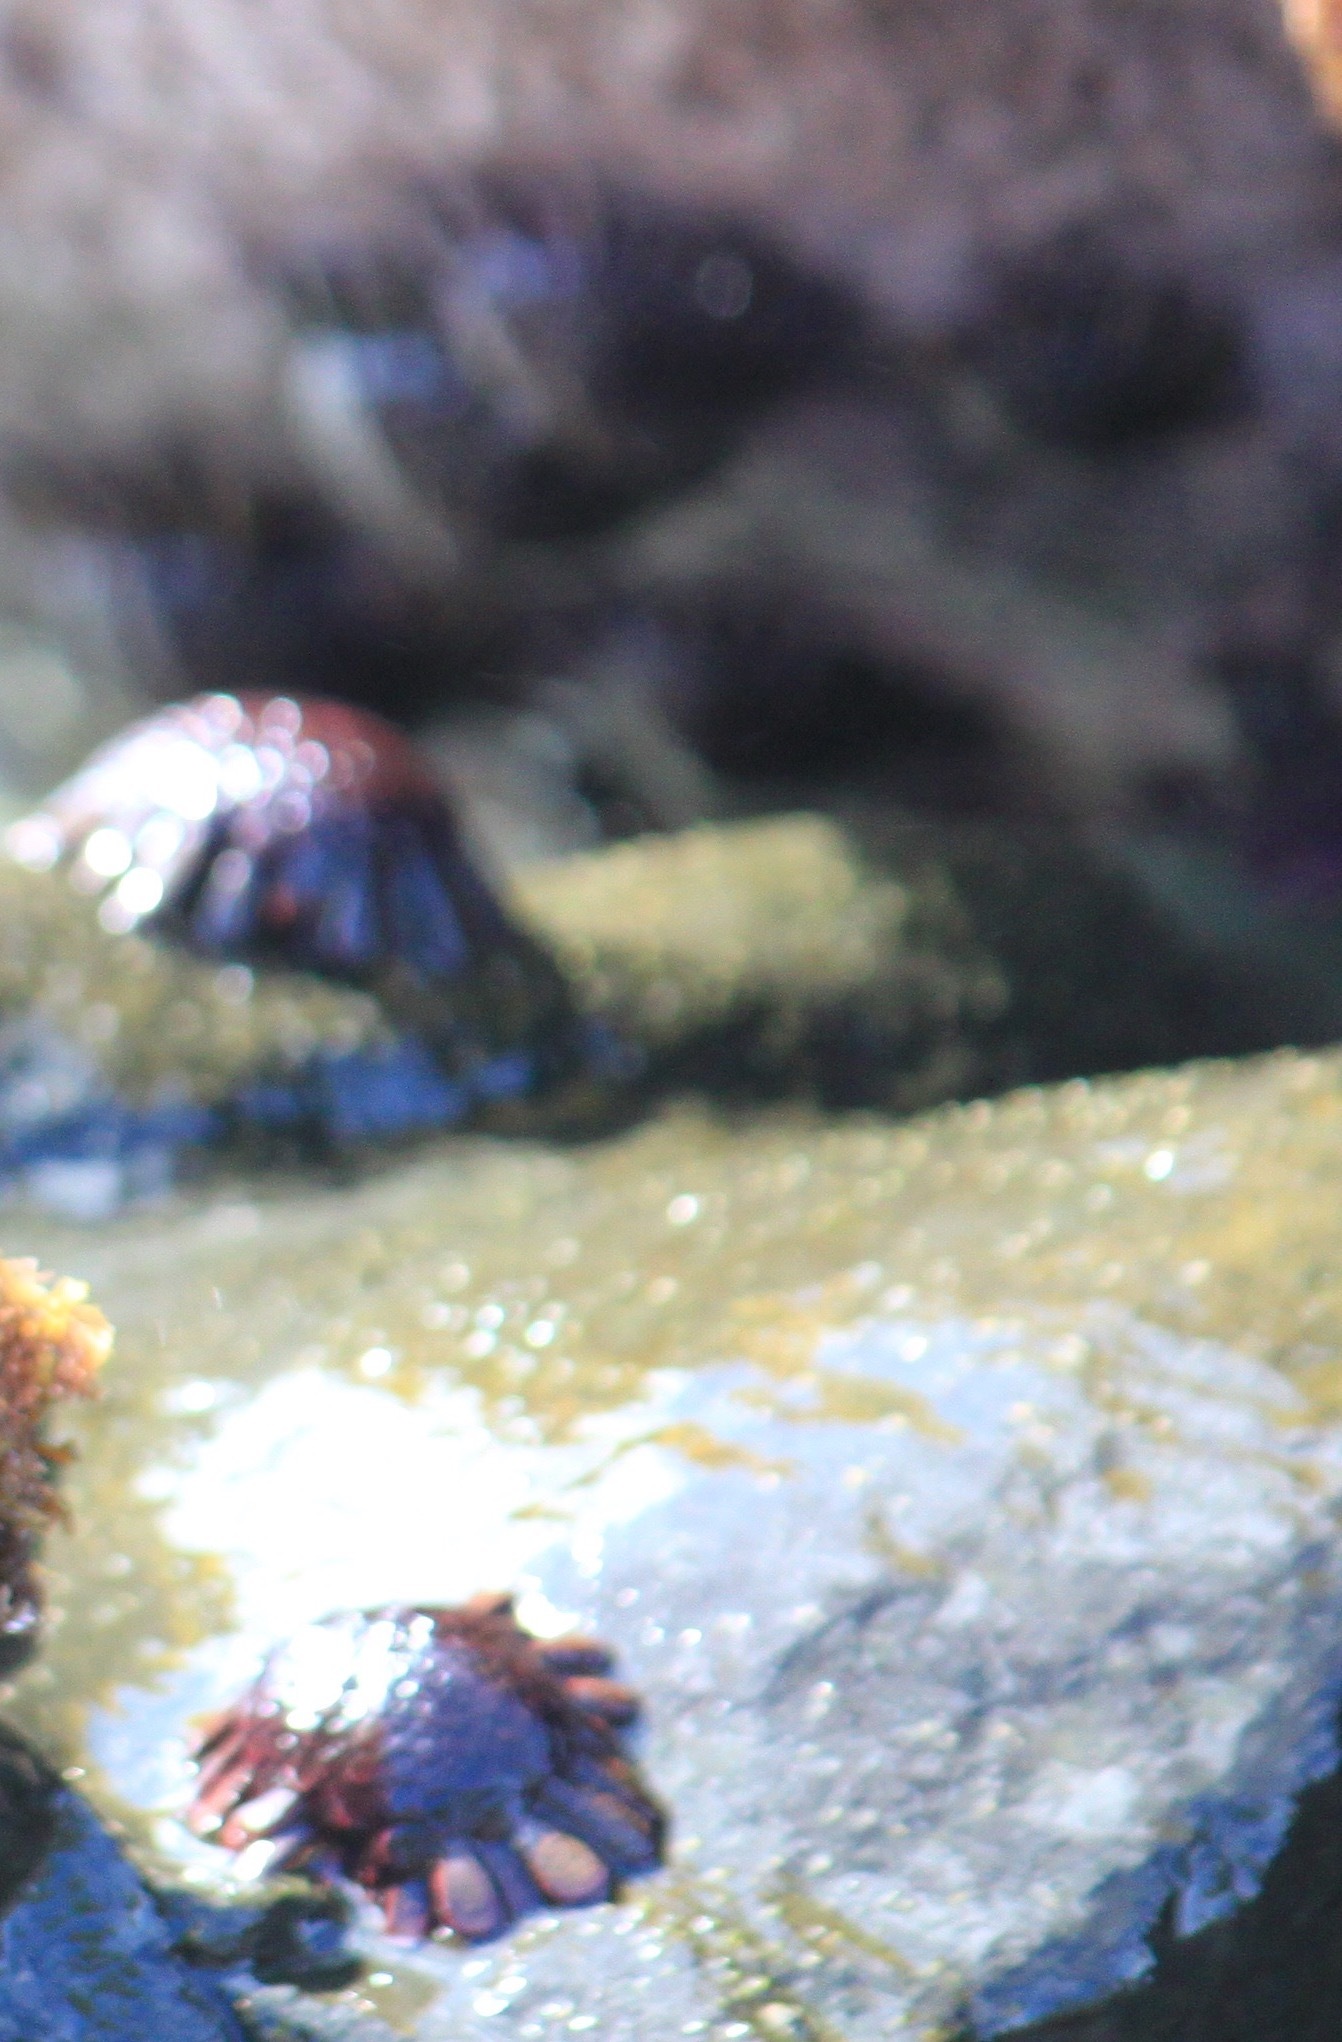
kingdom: Animalia
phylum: Echinodermata
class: Echinoidea
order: Camarodonta
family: Echinometridae
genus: Colobocentrotus
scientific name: Colobocentrotus atratus
